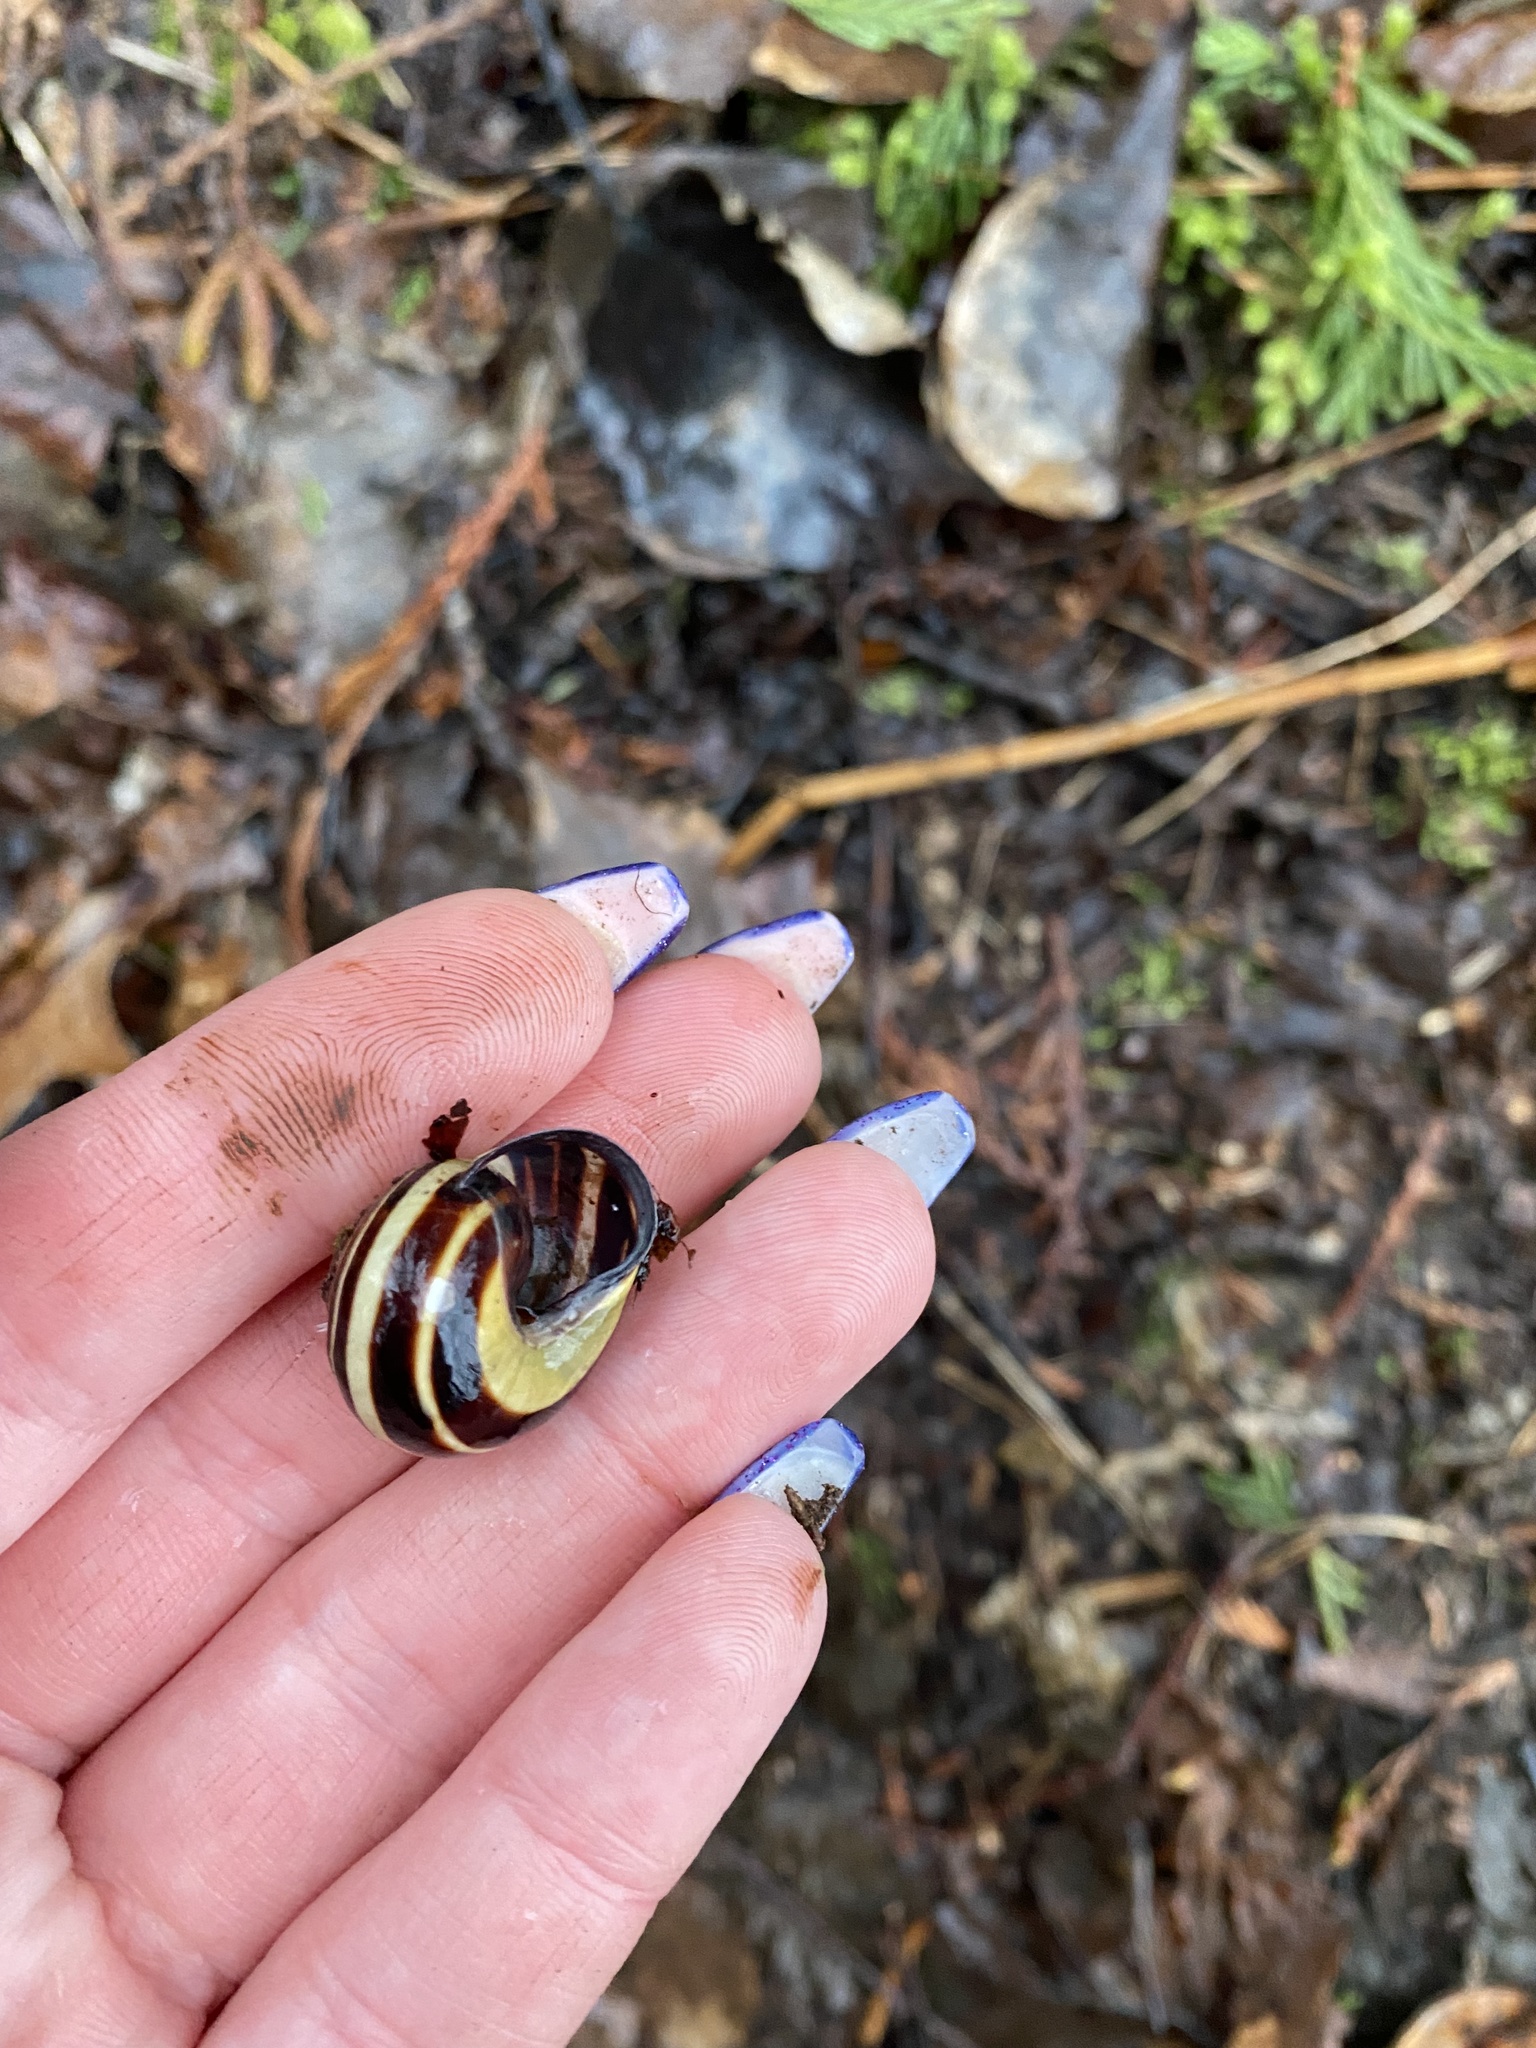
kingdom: Animalia
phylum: Mollusca
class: Gastropoda
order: Stylommatophora
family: Helicidae
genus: Cepaea
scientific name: Cepaea nemoralis
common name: Grovesnail
